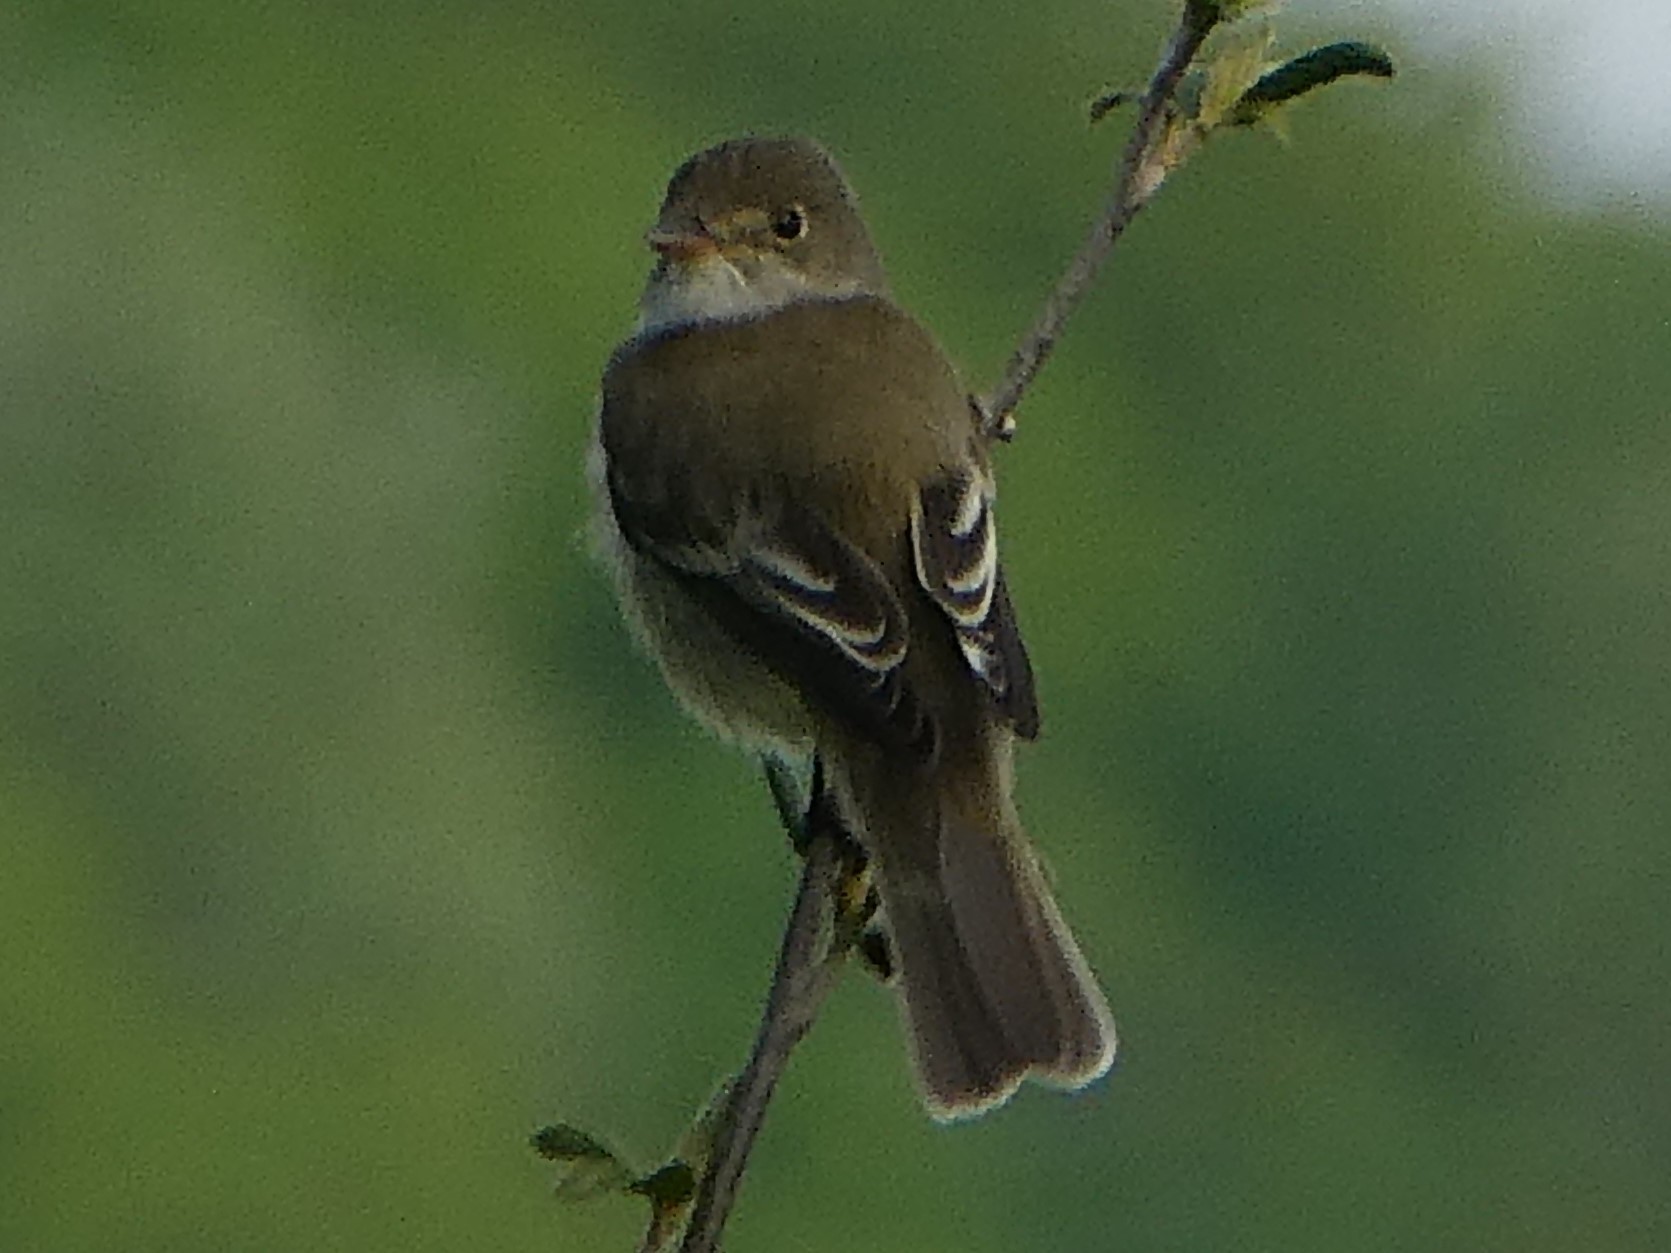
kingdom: Animalia
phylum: Chordata
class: Aves
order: Passeriformes
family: Tyrannidae
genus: Empidonax
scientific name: Empidonax
